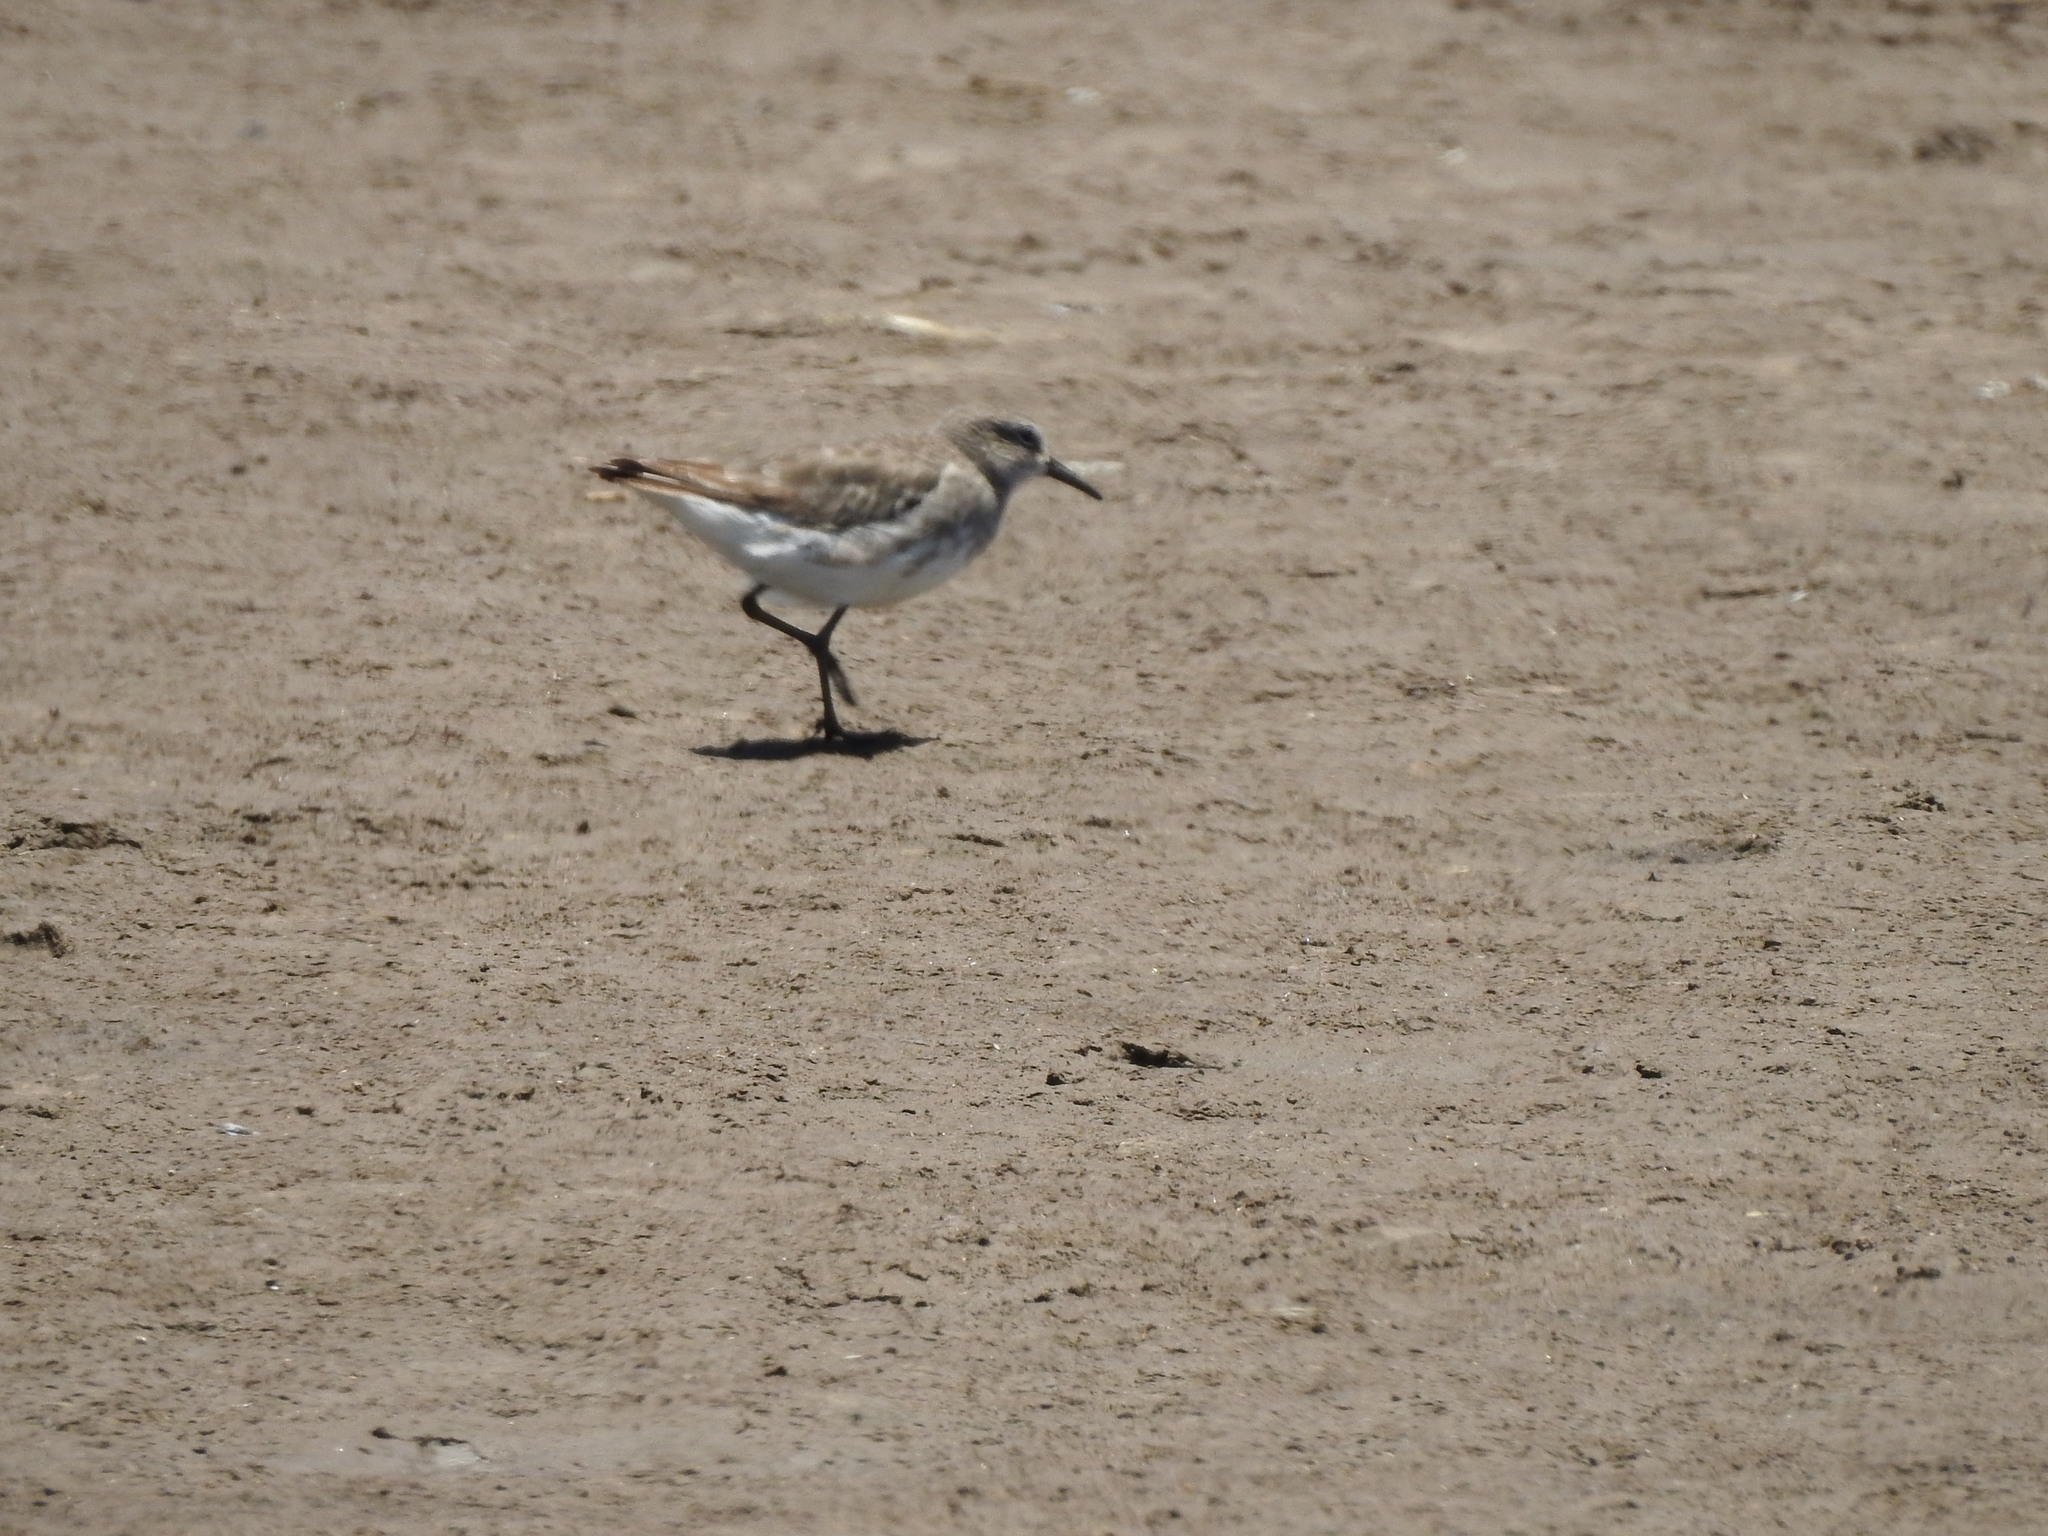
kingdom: Animalia
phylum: Chordata
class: Aves
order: Charadriiformes
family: Scolopacidae
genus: Calidris
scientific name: Calidris fuscicollis
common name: White-rumped sandpiper
